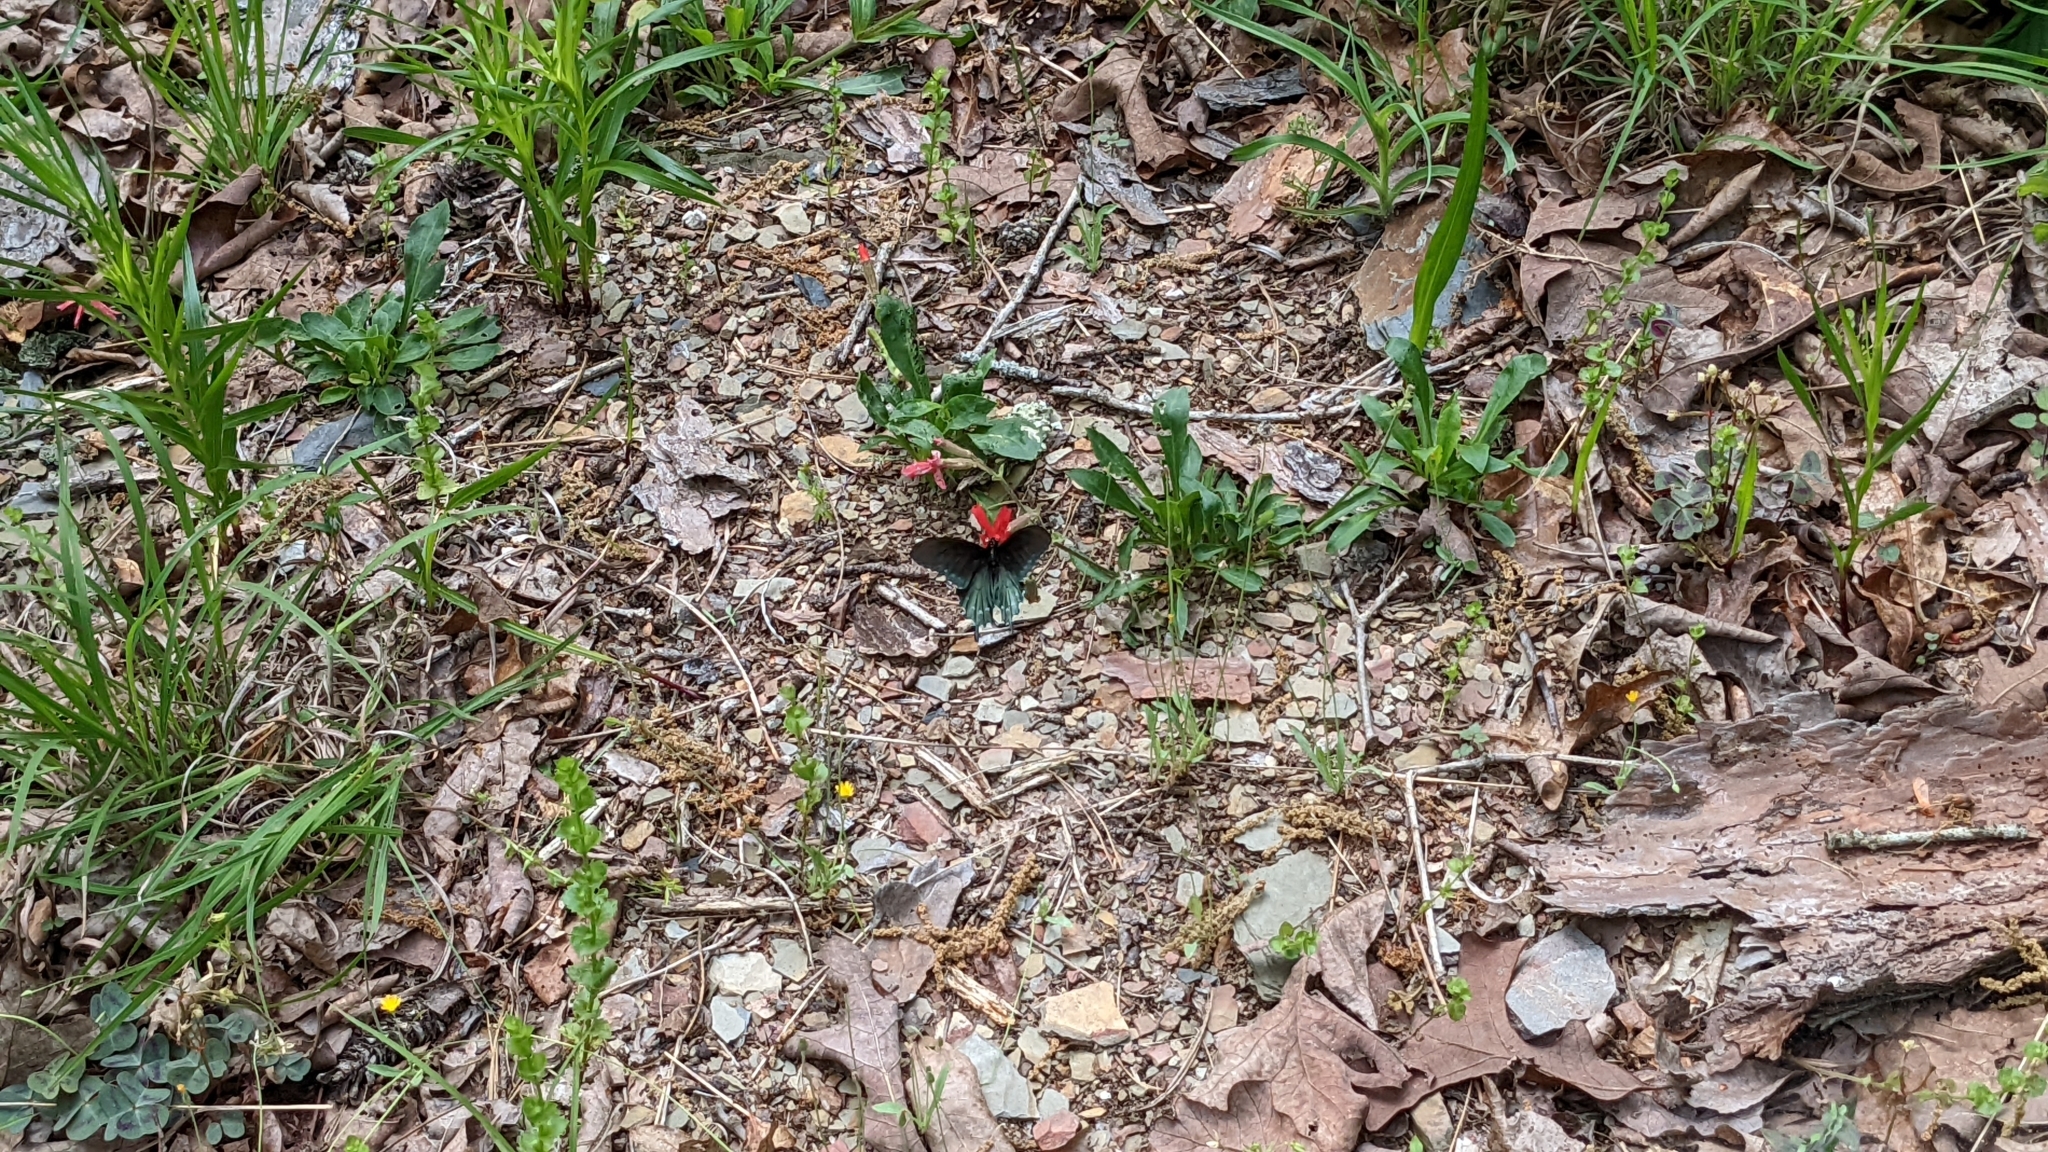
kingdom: Animalia
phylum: Arthropoda
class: Insecta
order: Lepidoptera
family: Papilionidae
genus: Battus
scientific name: Battus philenor
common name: Pipevine swallowtail
